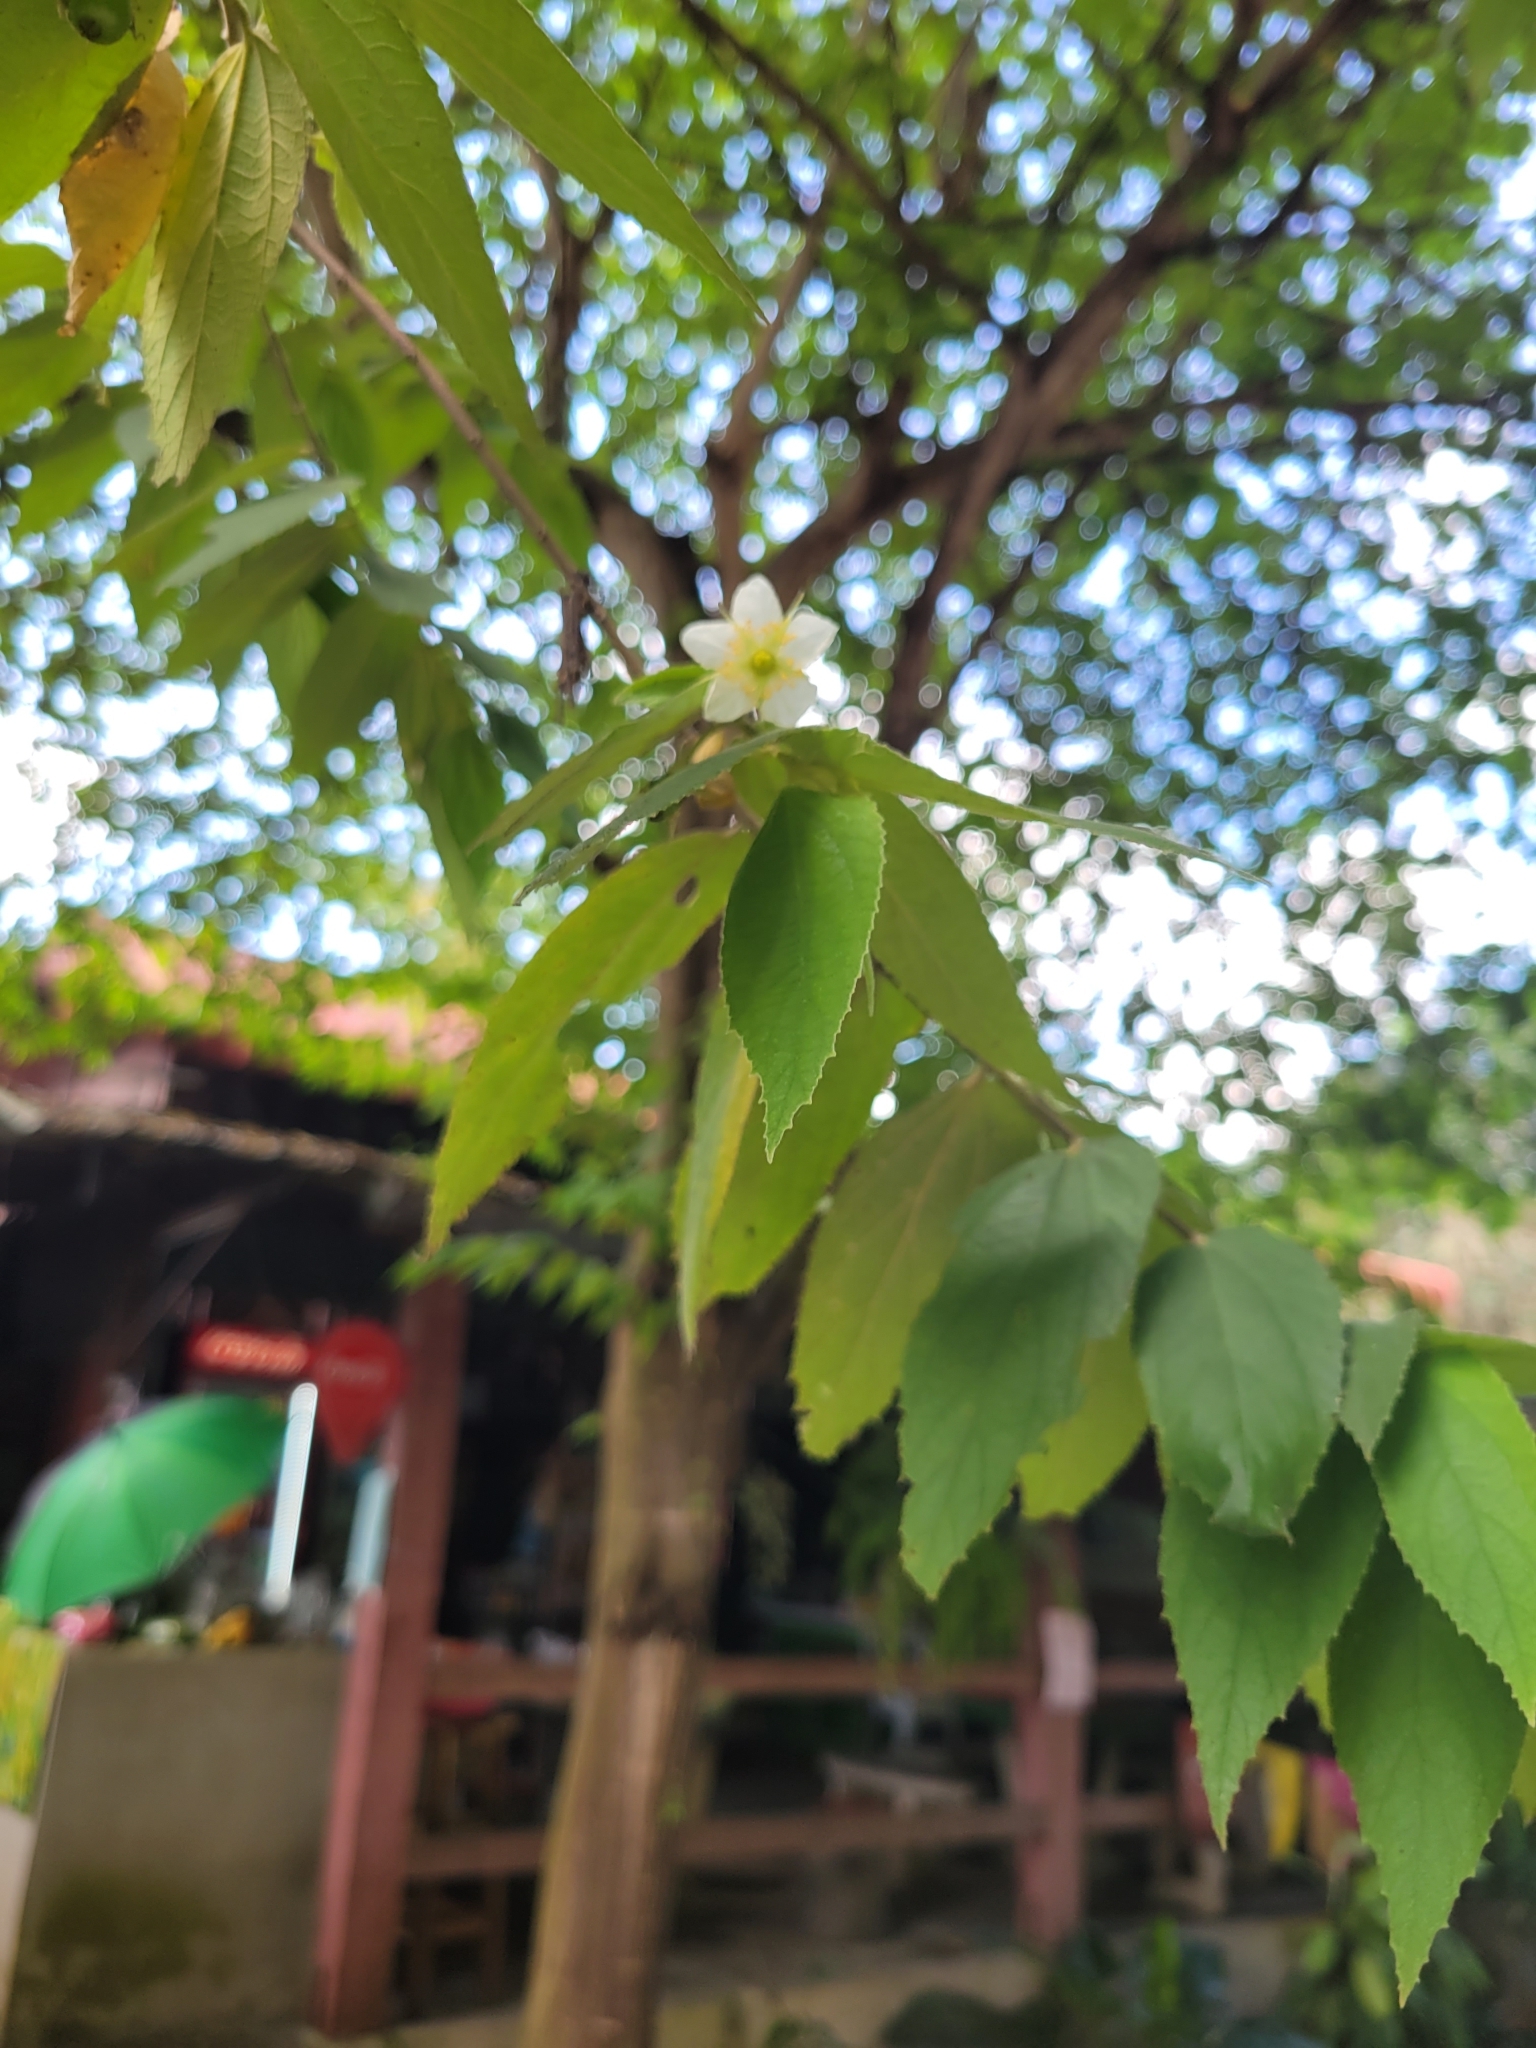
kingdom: Plantae
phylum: Tracheophyta
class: Magnoliopsida
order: Malvales
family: Muntingiaceae
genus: Muntingia
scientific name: Muntingia calabura
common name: Strawberrytree
